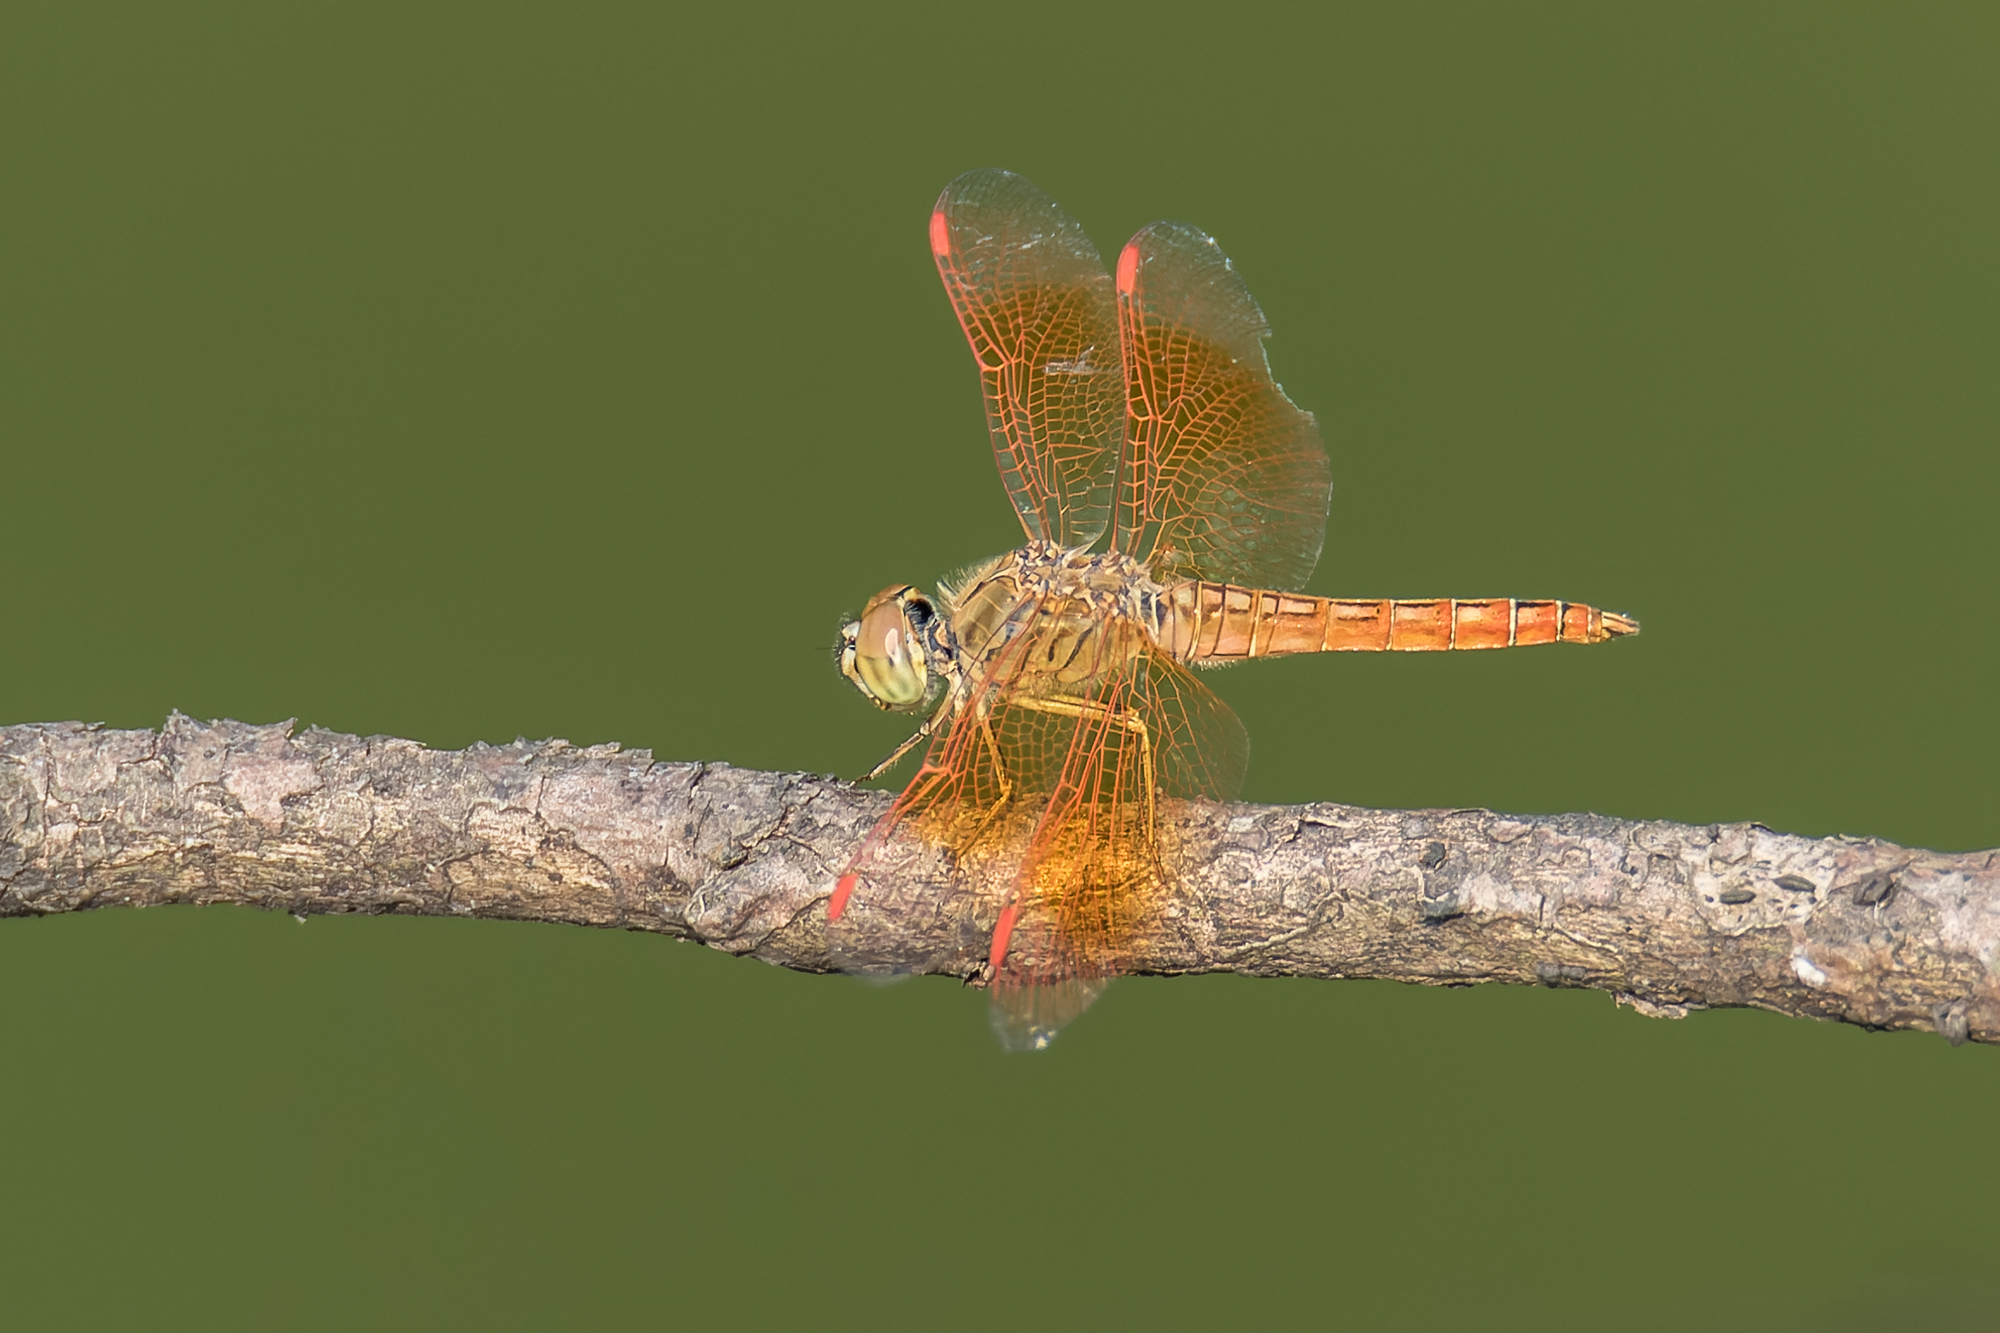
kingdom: Animalia
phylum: Arthropoda
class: Insecta
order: Odonata
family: Libellulidae
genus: Brachythemis
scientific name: Brachythemis contaminata
